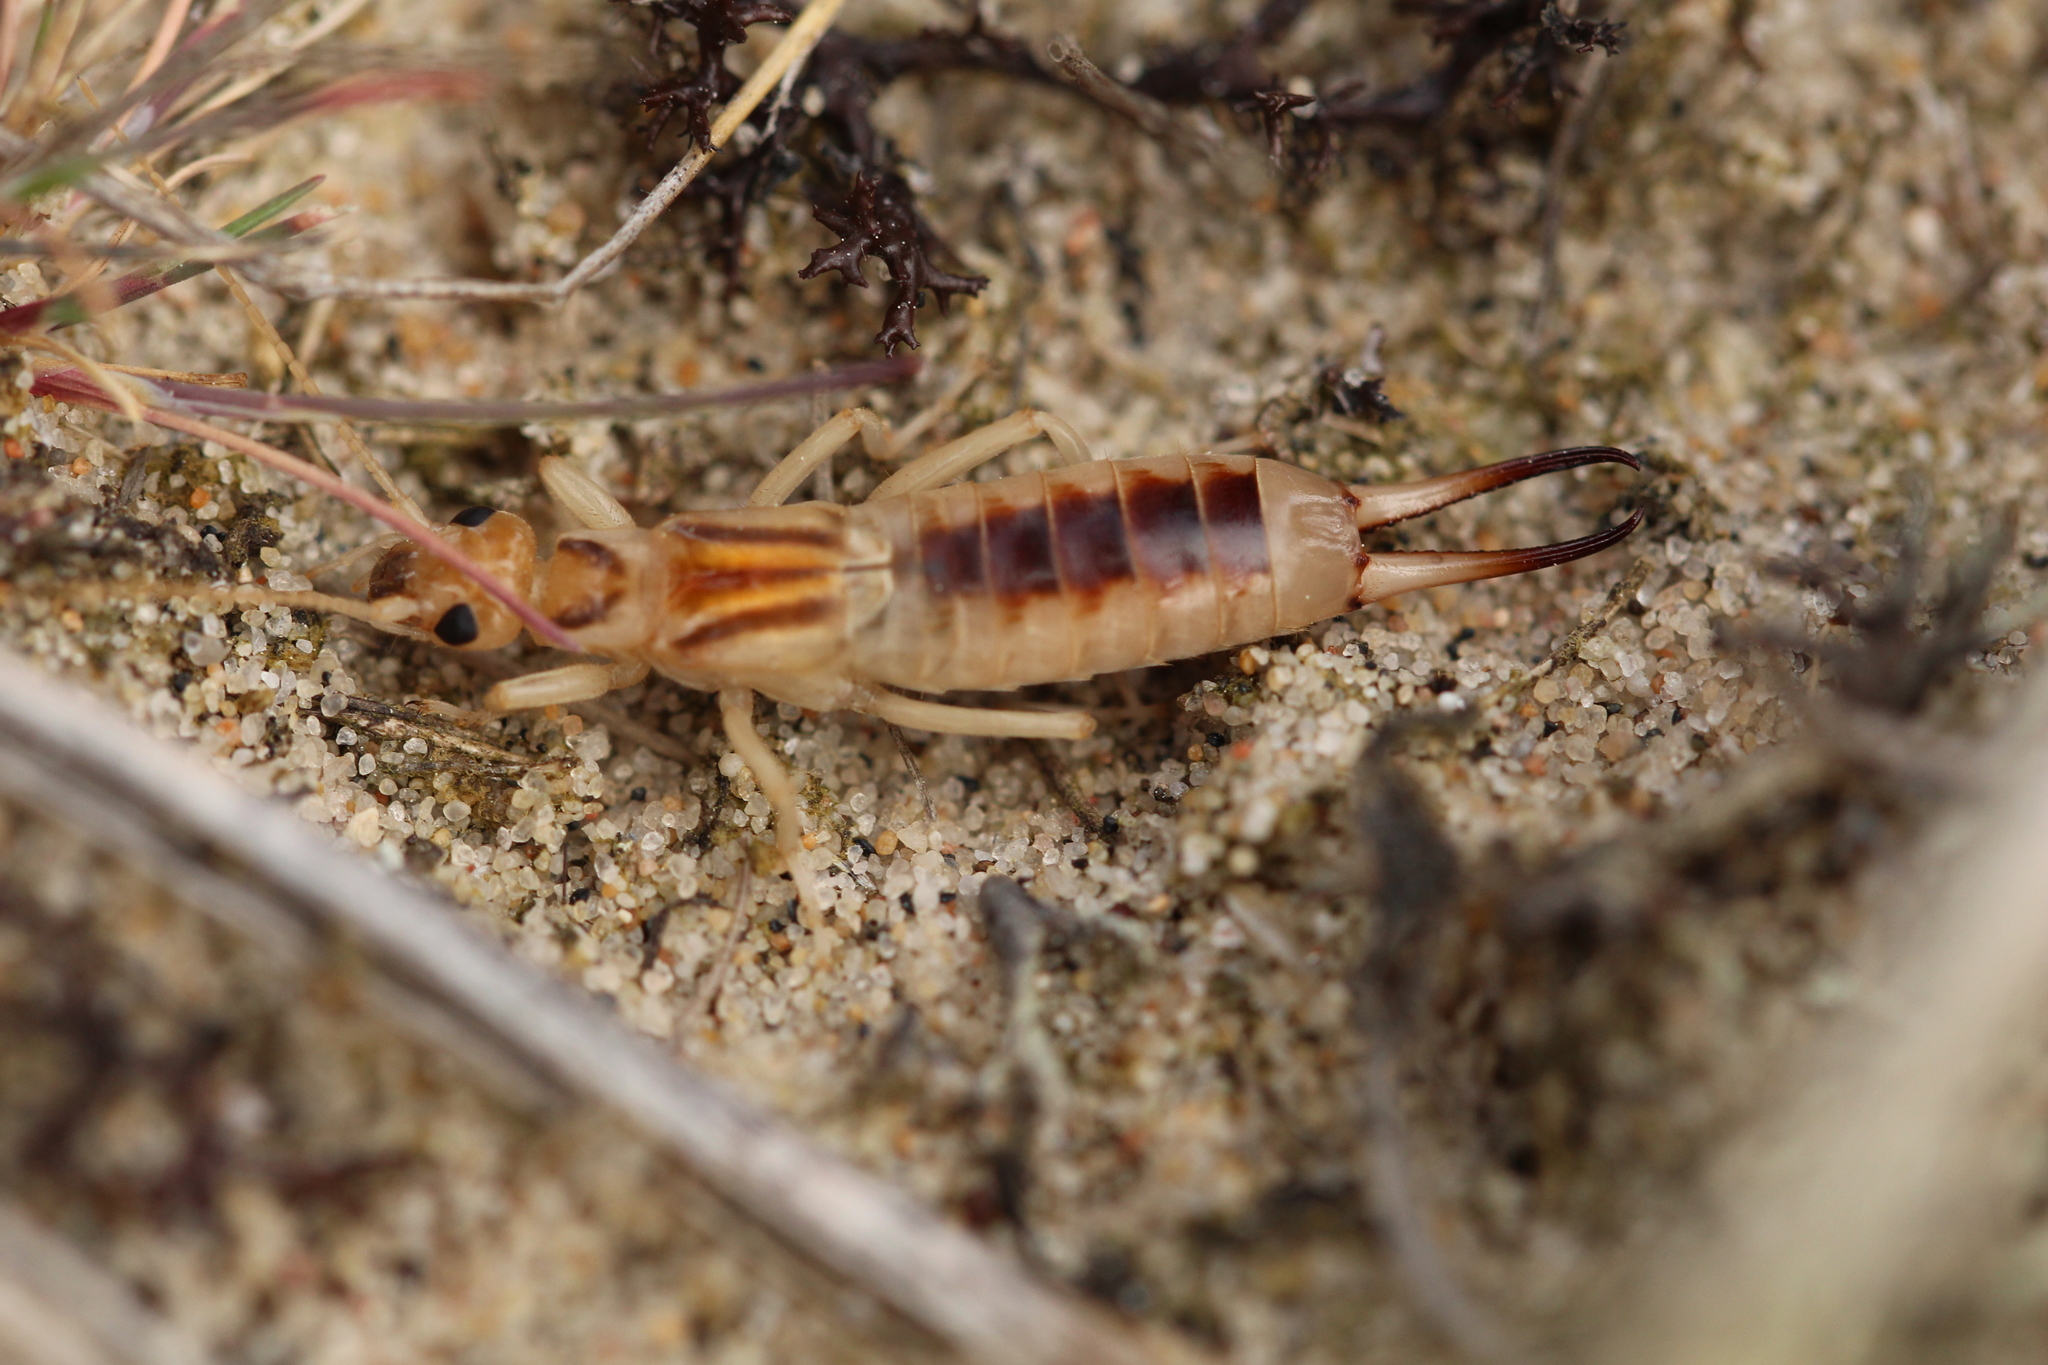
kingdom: Animalia
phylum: Arthropoda
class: Insecta
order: Dermaptera
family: Labiduridae
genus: Labidura
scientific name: Labidura riparia
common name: Striped earwig
